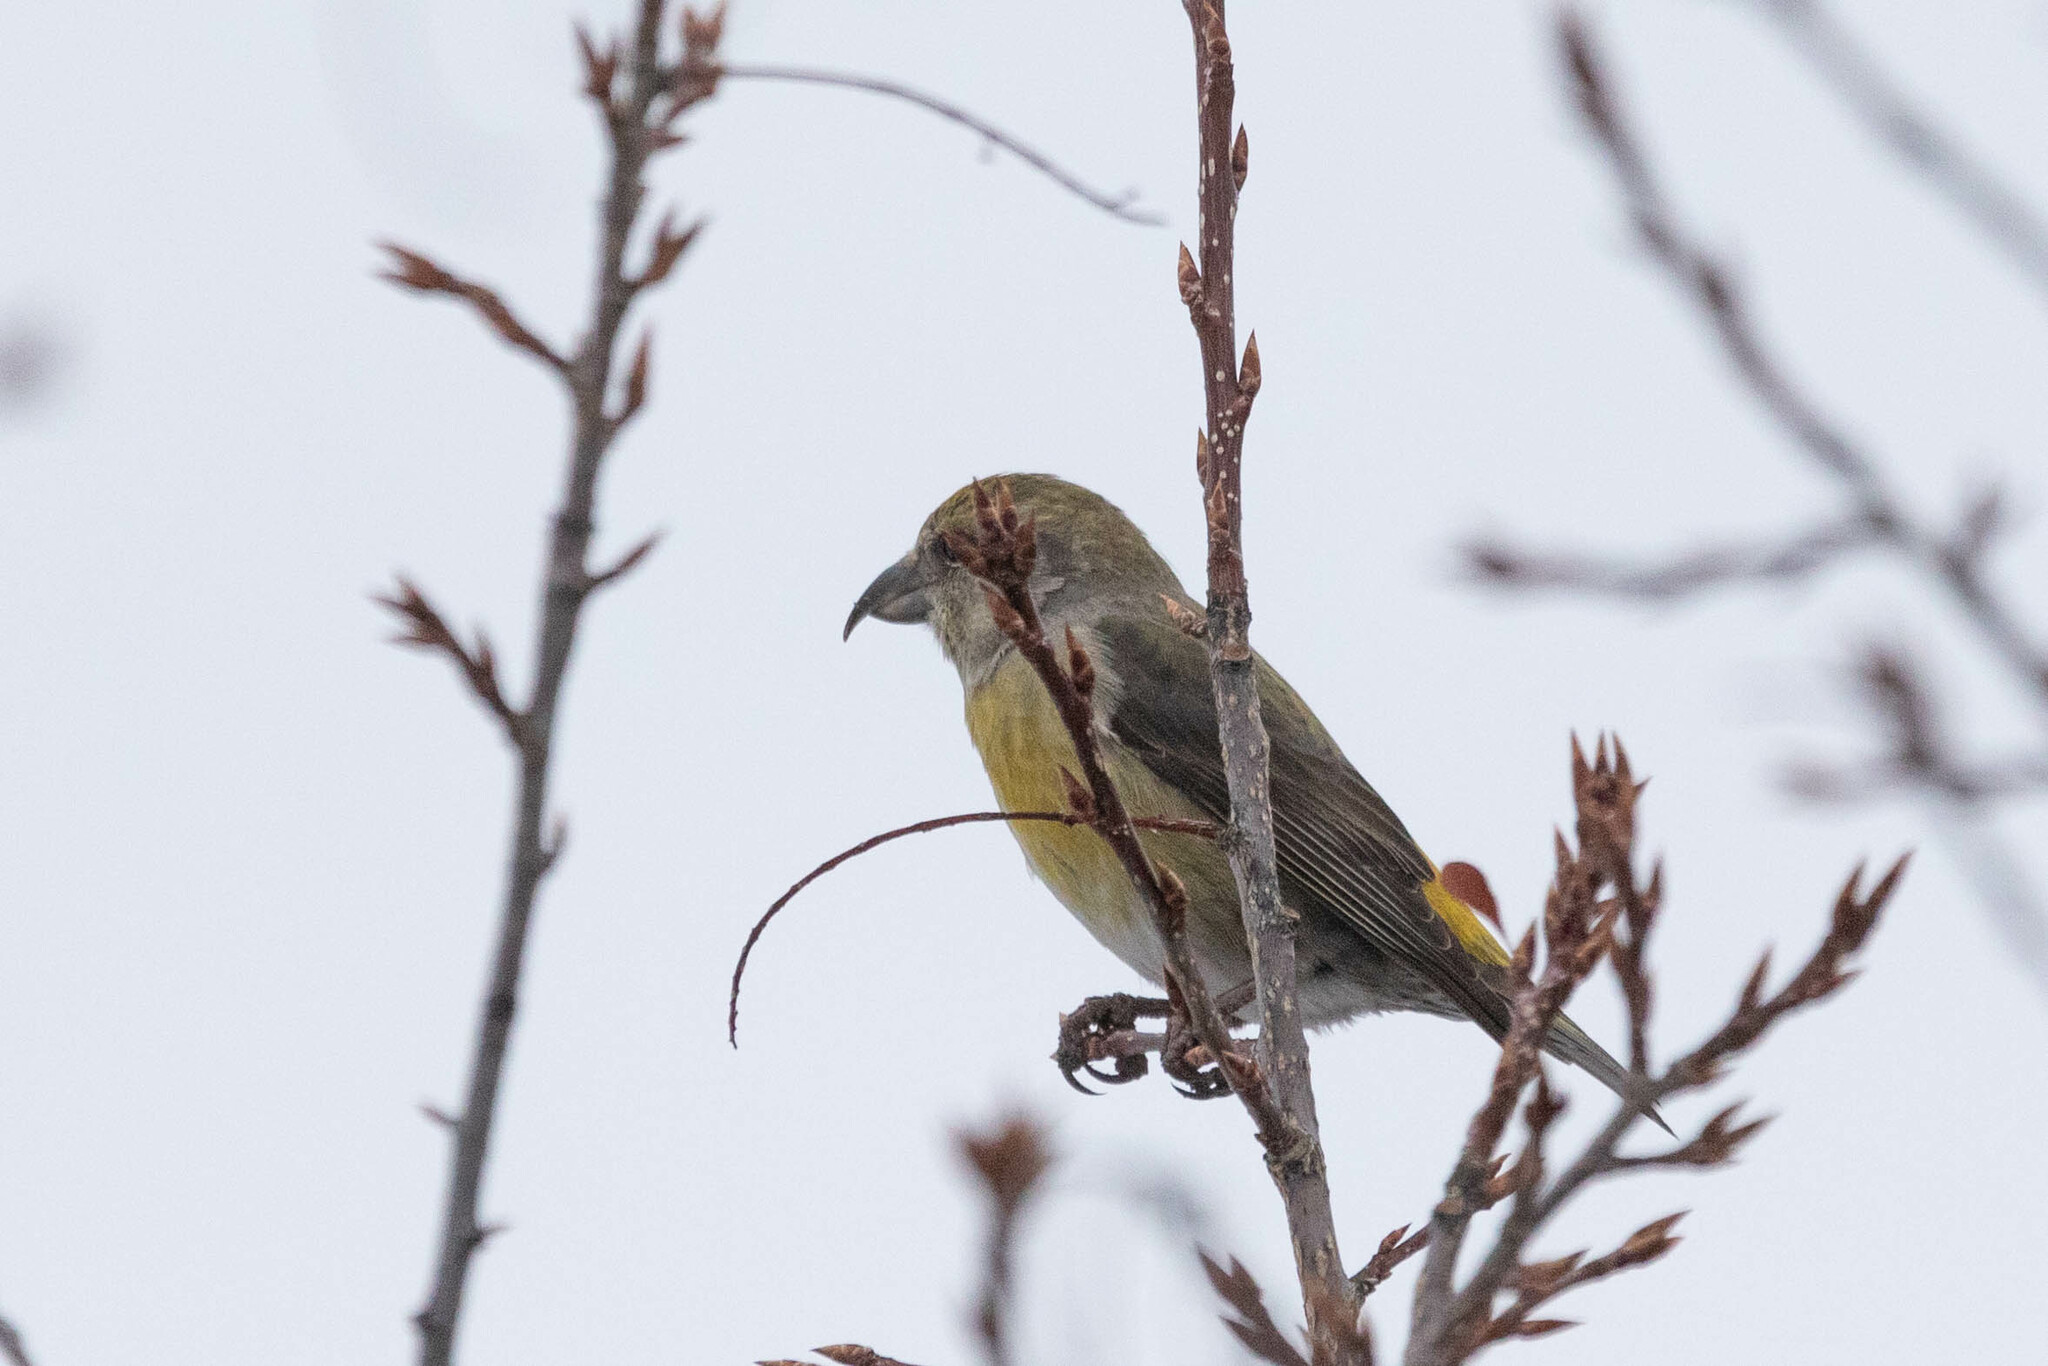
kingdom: Animalia
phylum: Chordata
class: Aves
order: Passeriformes
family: Fringillidae
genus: Loxia
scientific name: Loxia curvirostra
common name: Red crossbill
